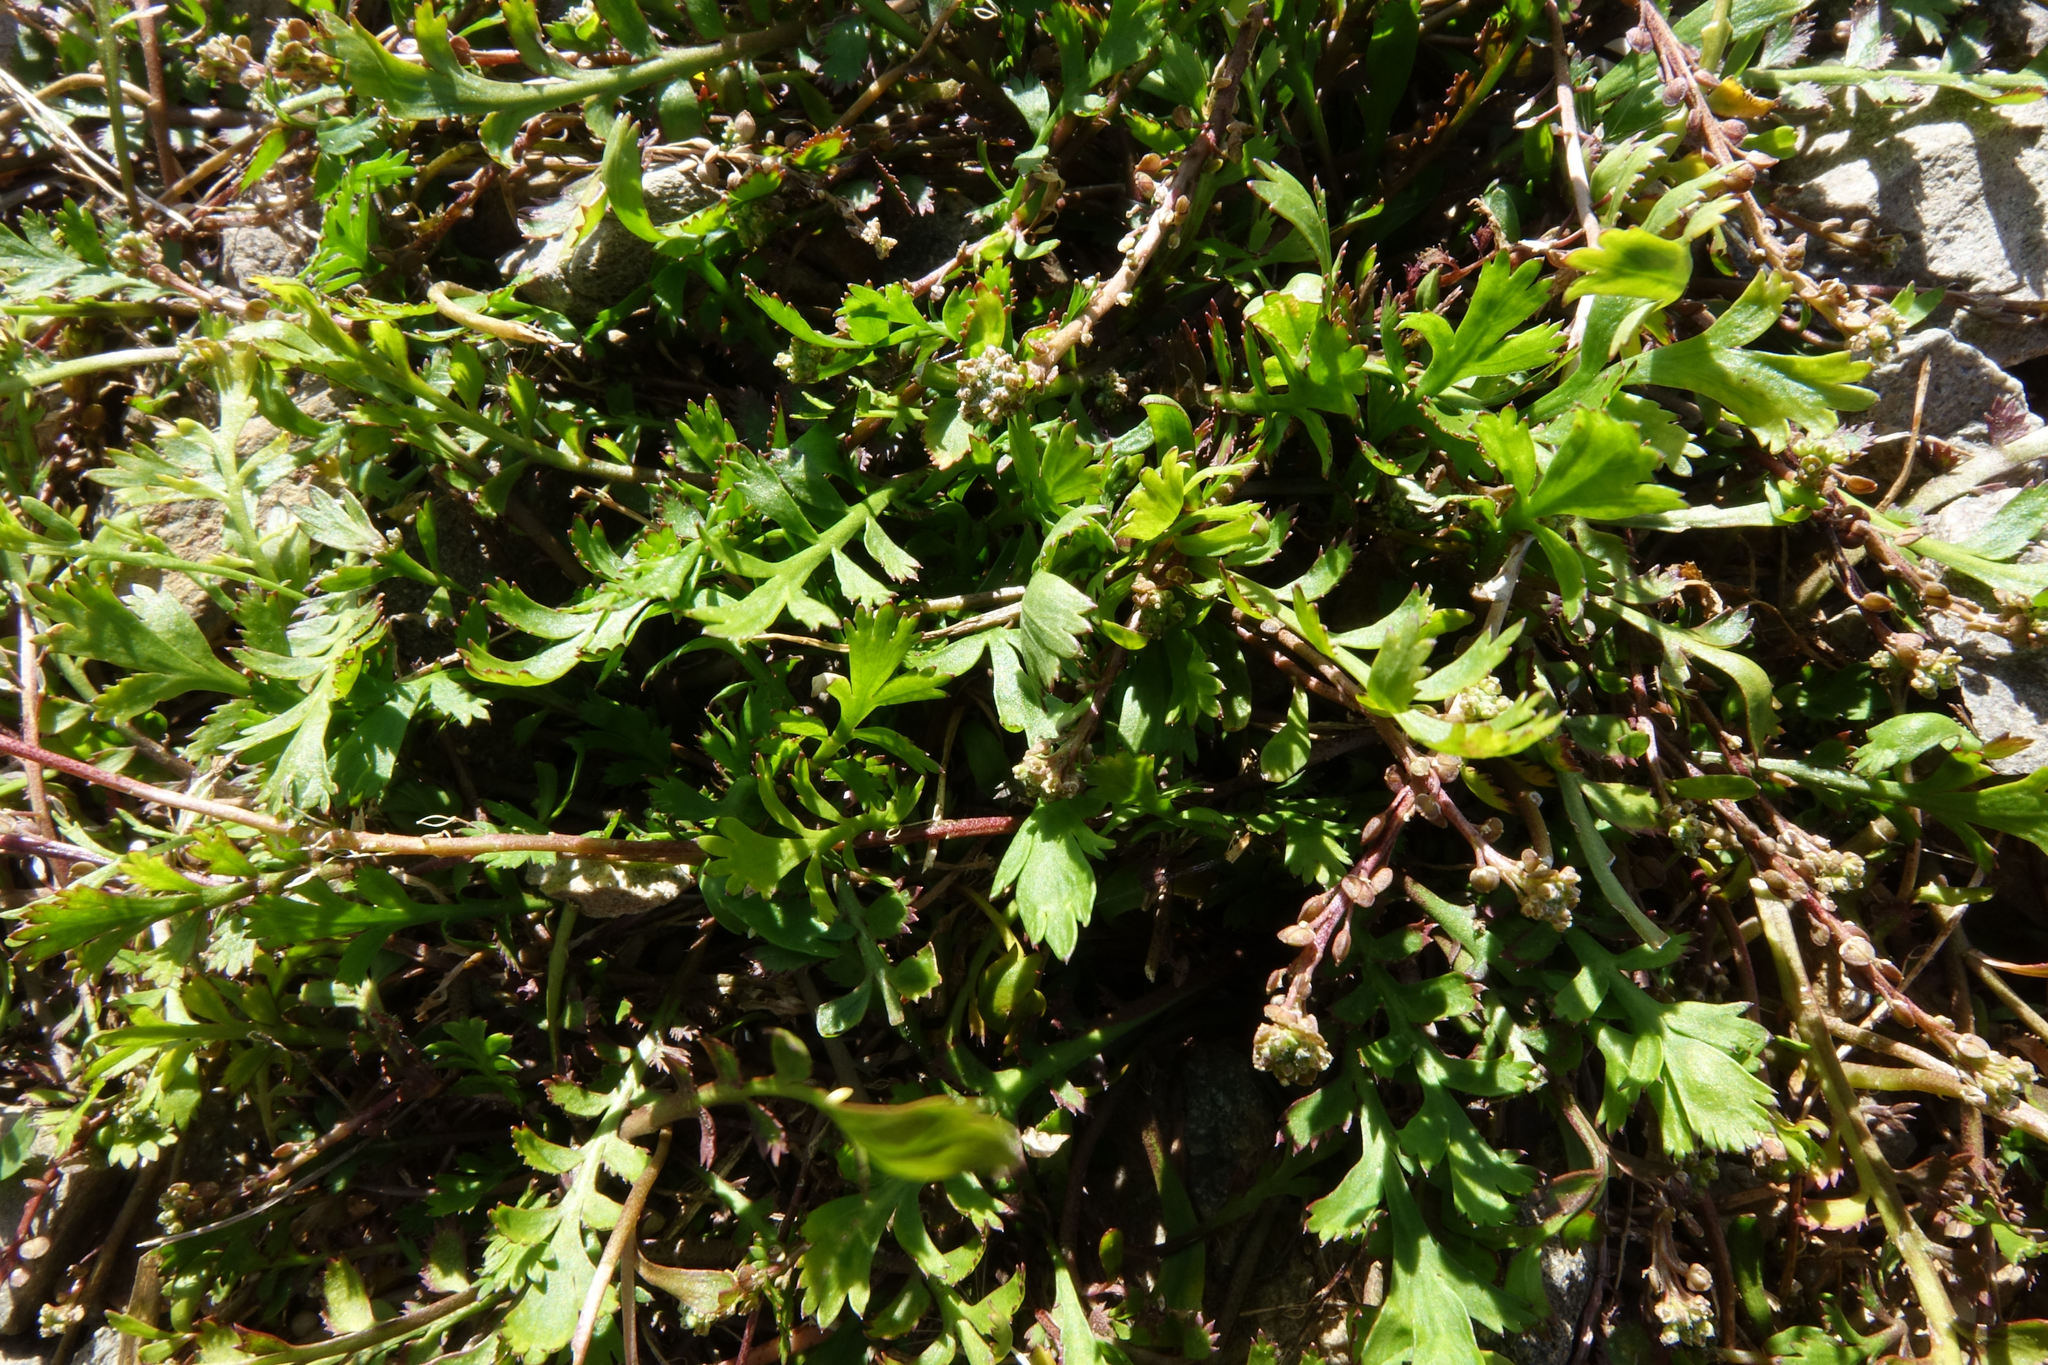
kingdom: Plantae
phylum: Tracheophyta
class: Magnoliopsida
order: Brassicales
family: Brassicaceae
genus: Lepidium
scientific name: Lepidium tenuicaule
